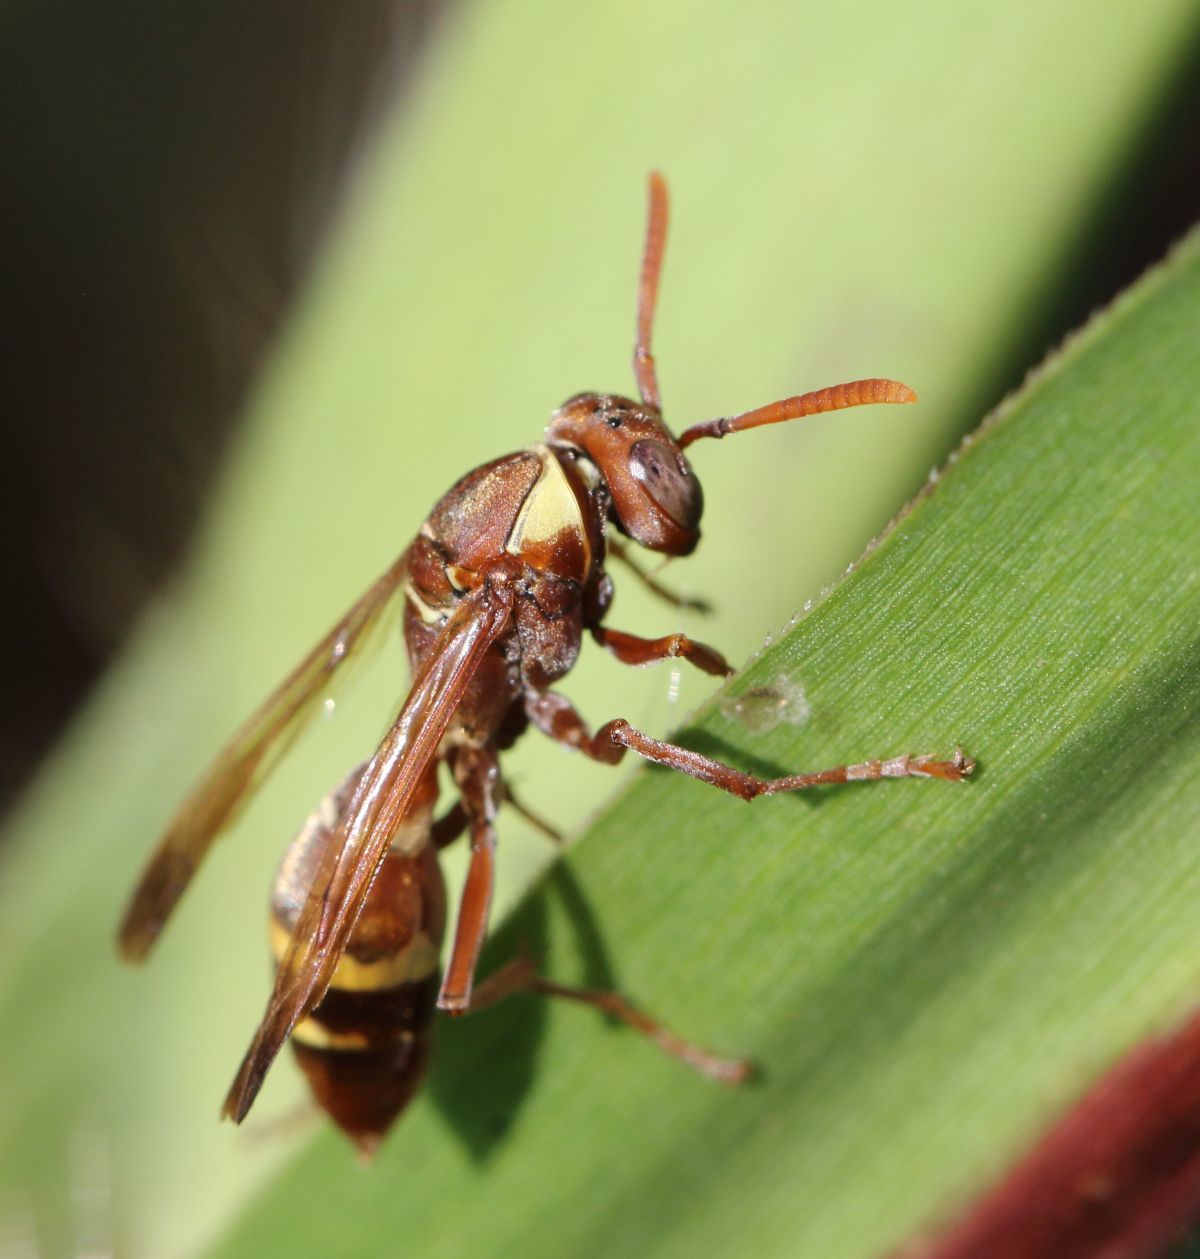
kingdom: Animalia
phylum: Arthropoda
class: Insecta
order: Hymenoptera
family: Eumenidae
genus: Polistes
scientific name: Polistes badius
